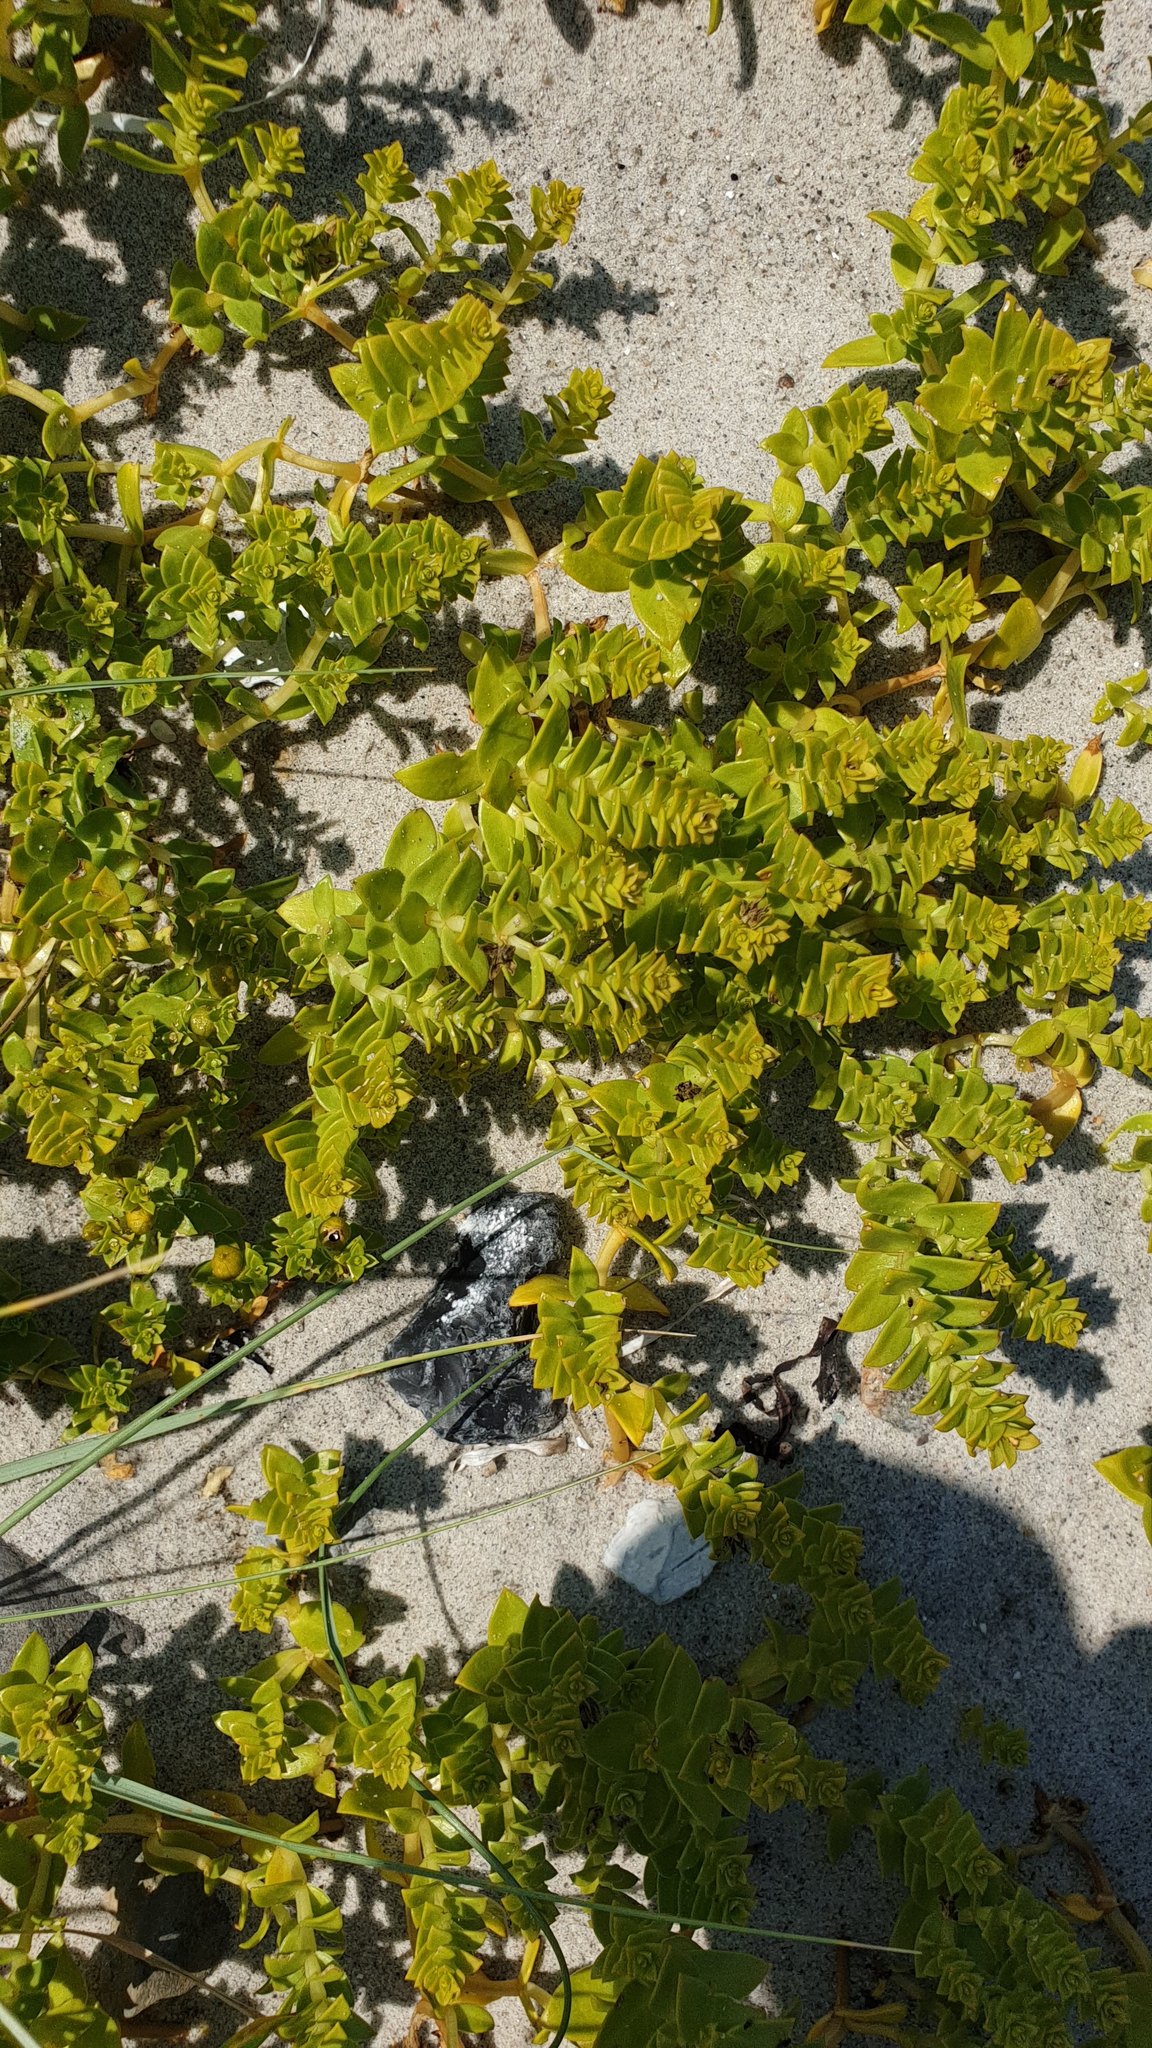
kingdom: Plantae
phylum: Tracheophyta
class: Magnoliopsida
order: Caryophyllales
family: Caryophyllaceae
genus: Honckenya
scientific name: Honckenya peploides
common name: Sea sandwort
